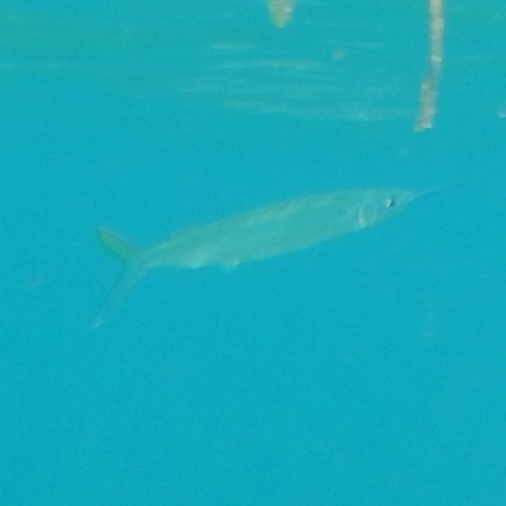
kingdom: Animalia
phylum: Chordata
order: Beloniformes
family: Belonidae
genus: Tylosurus
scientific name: Tylosurus crocodilus
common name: Houndfish
